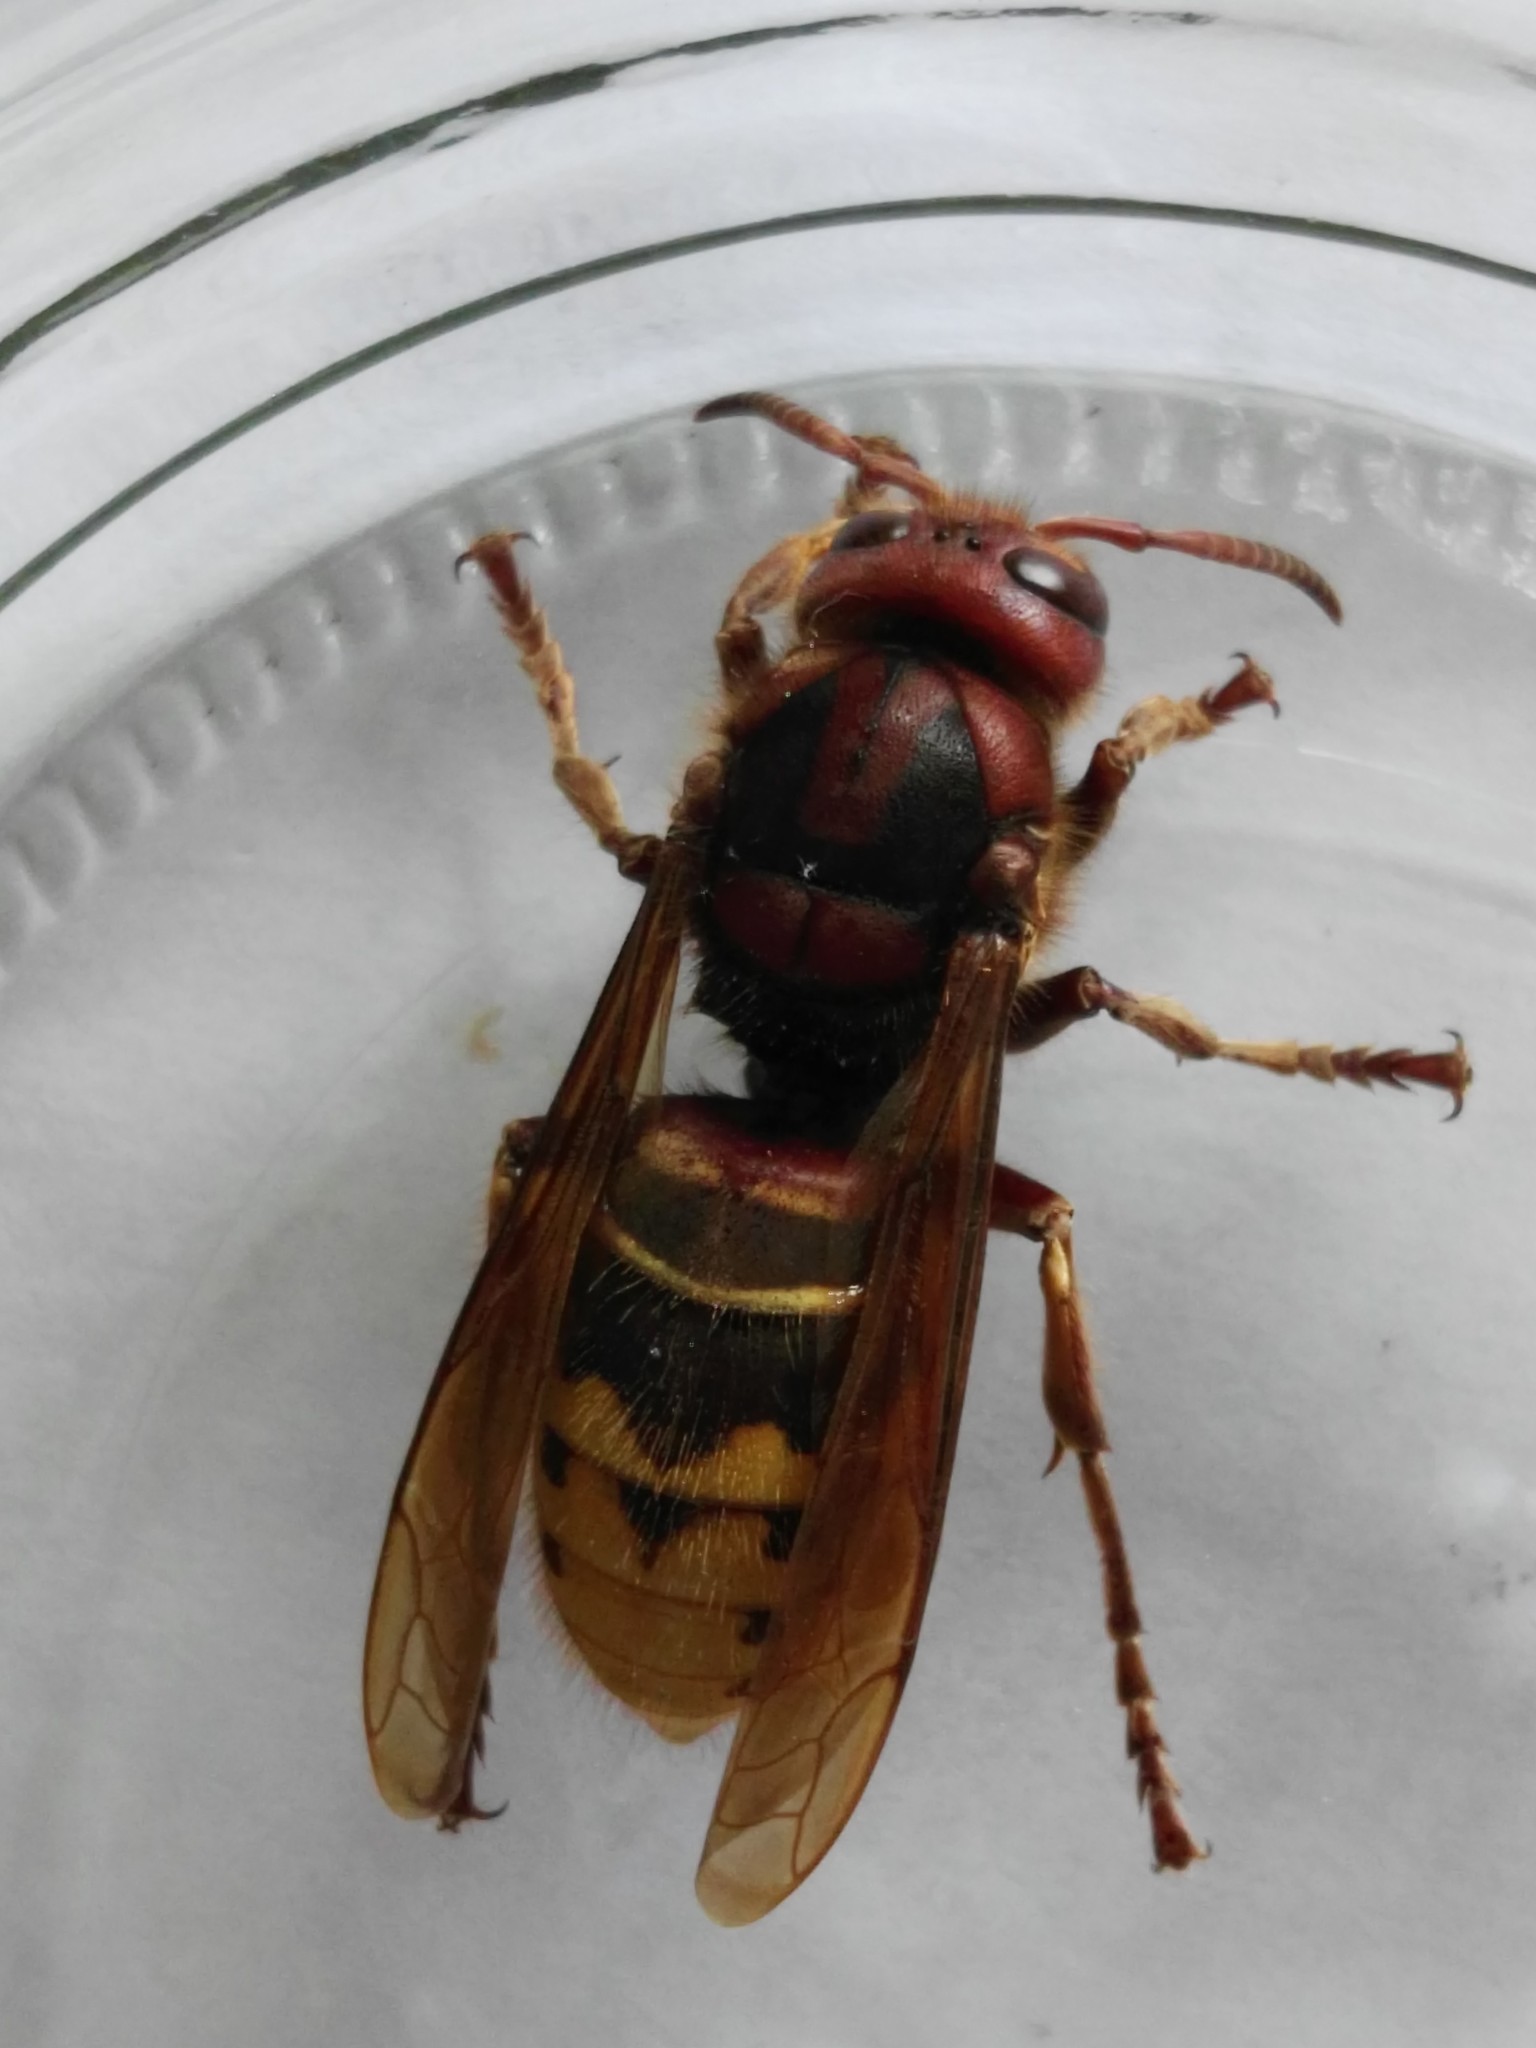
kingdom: Animalia
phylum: Arthropoda
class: Insecta
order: Hymenoptera
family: Vespidae
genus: Vespa
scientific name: Vespa crabro
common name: Hornet
